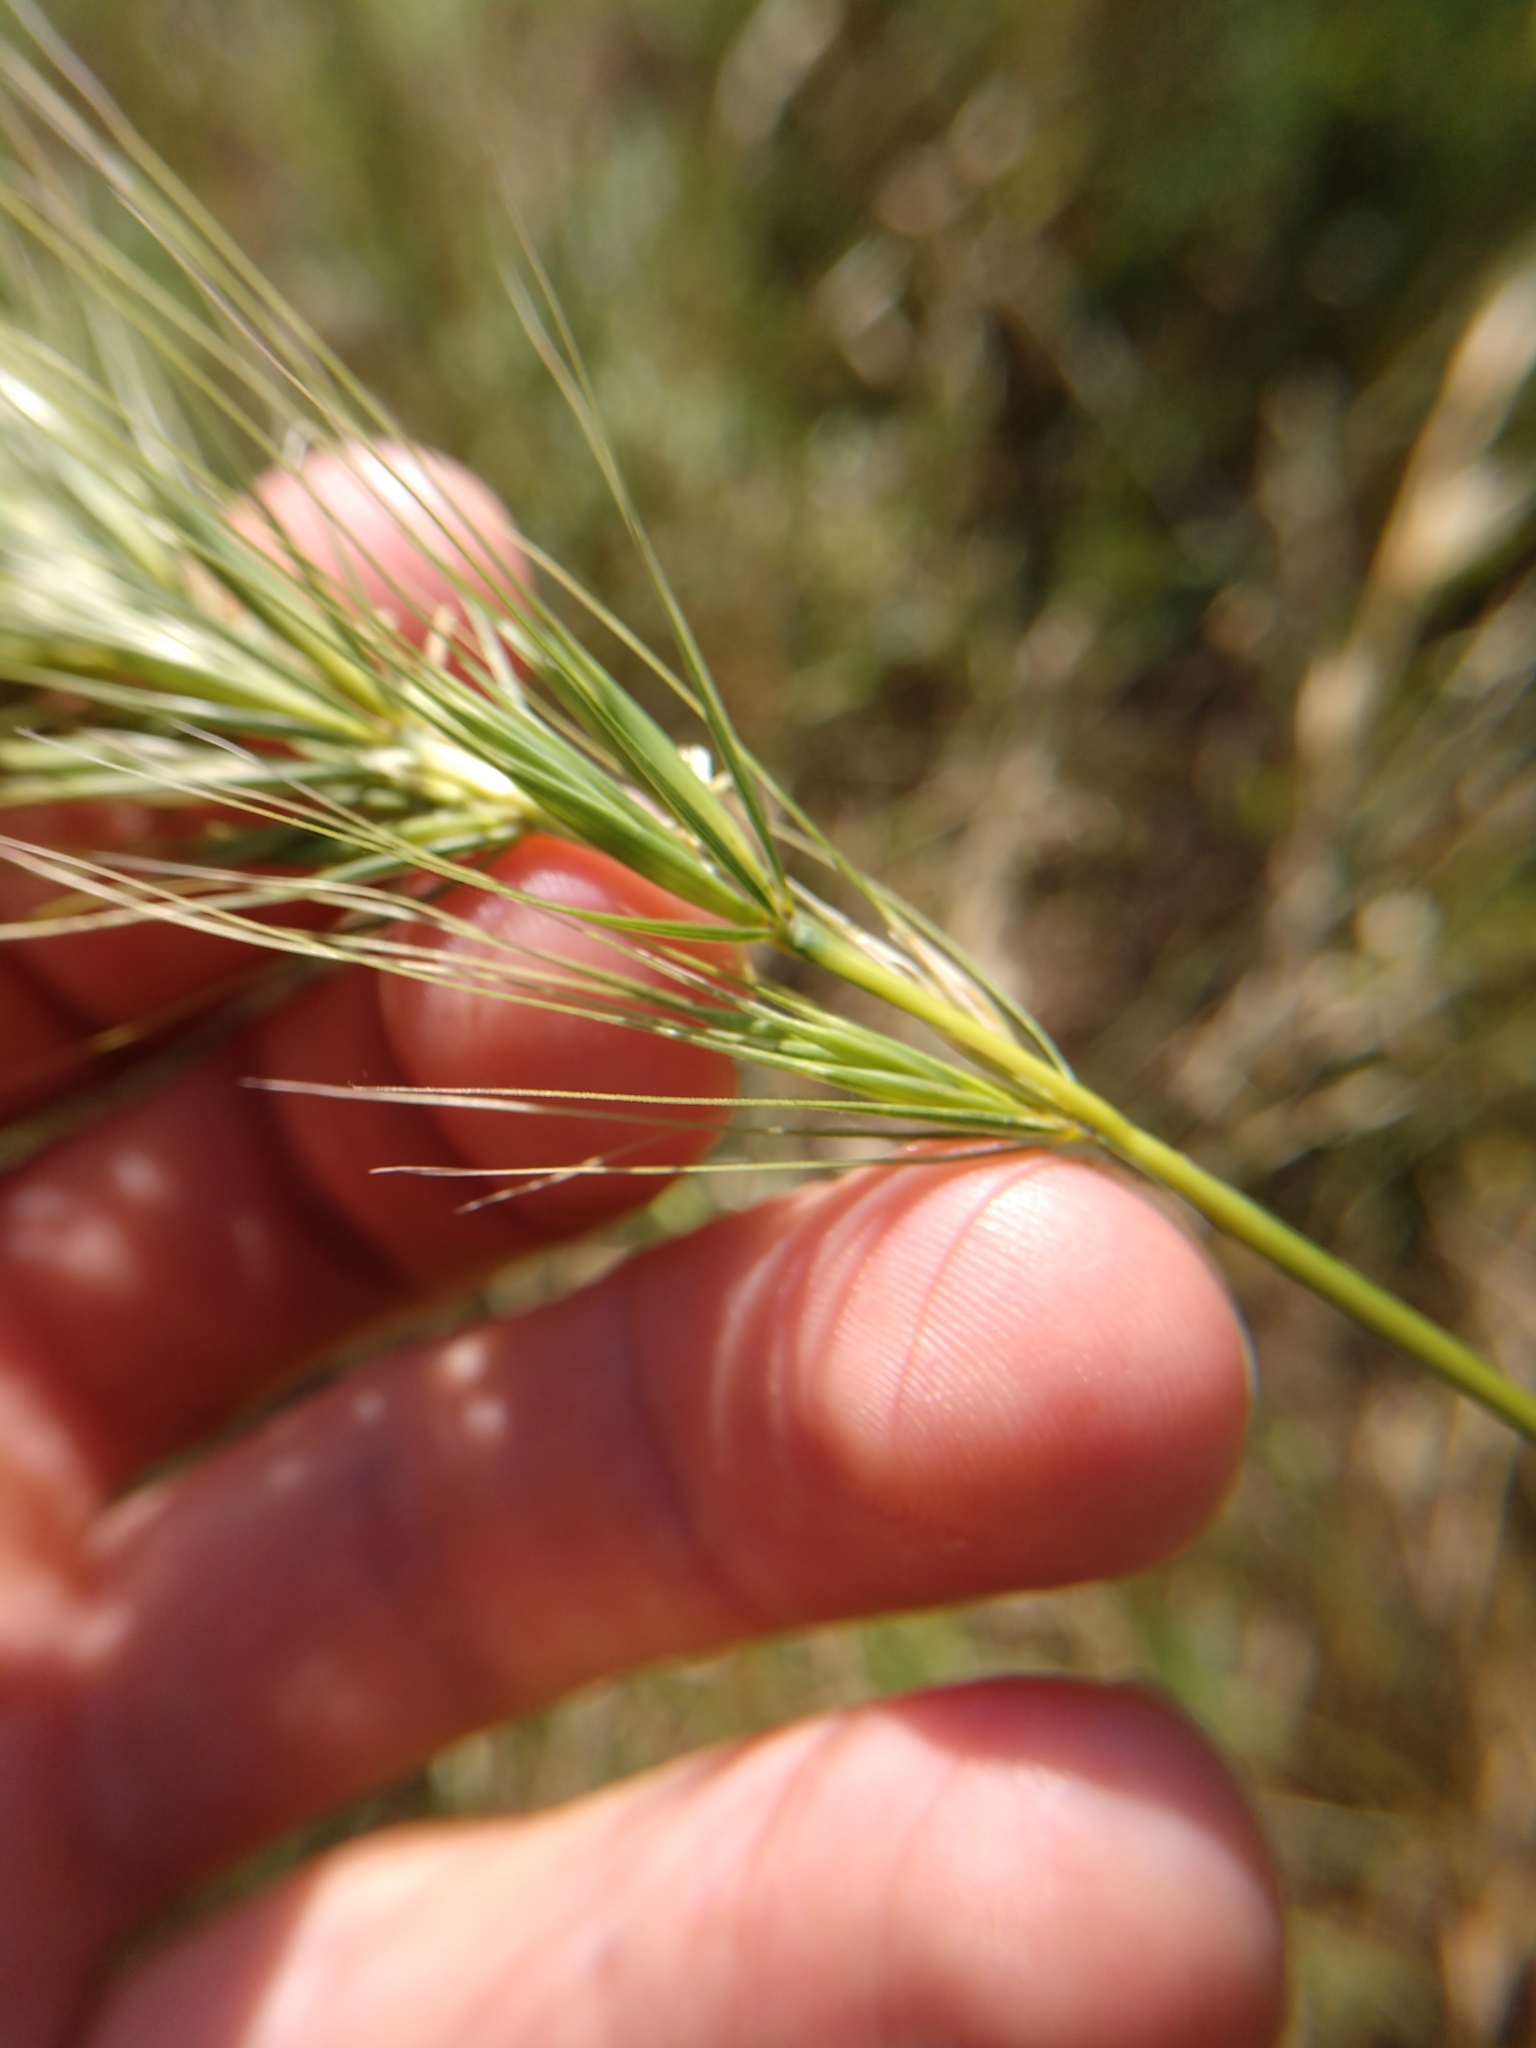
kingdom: Plantae
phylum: Tracheophyta
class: Liliopsida
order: Poales
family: Poaceae
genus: Elymus
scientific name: Elymus canadensis
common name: Canada wild rye
